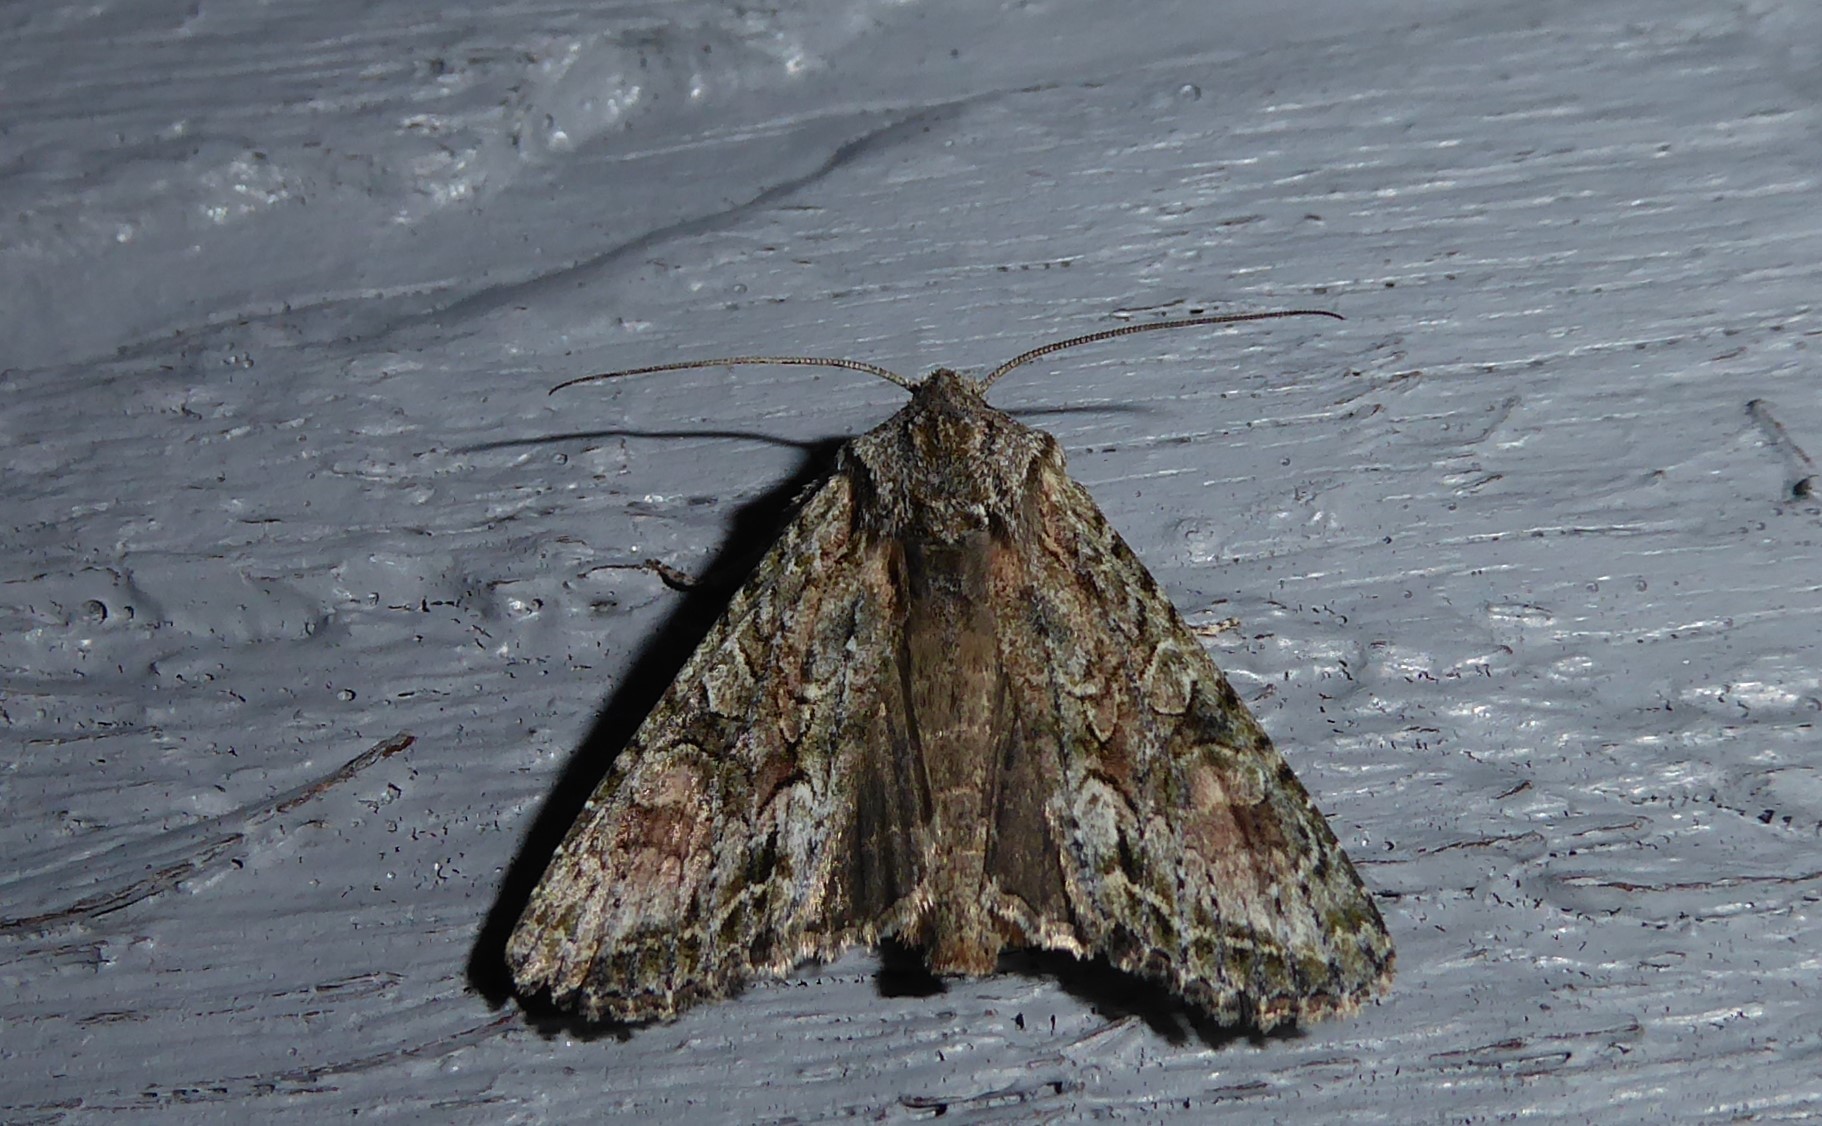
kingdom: Animalia
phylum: Arthropoda
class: Insecta
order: Lepidoptera
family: Noctuidae
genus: Ichneutica
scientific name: Ichneutica mutans
